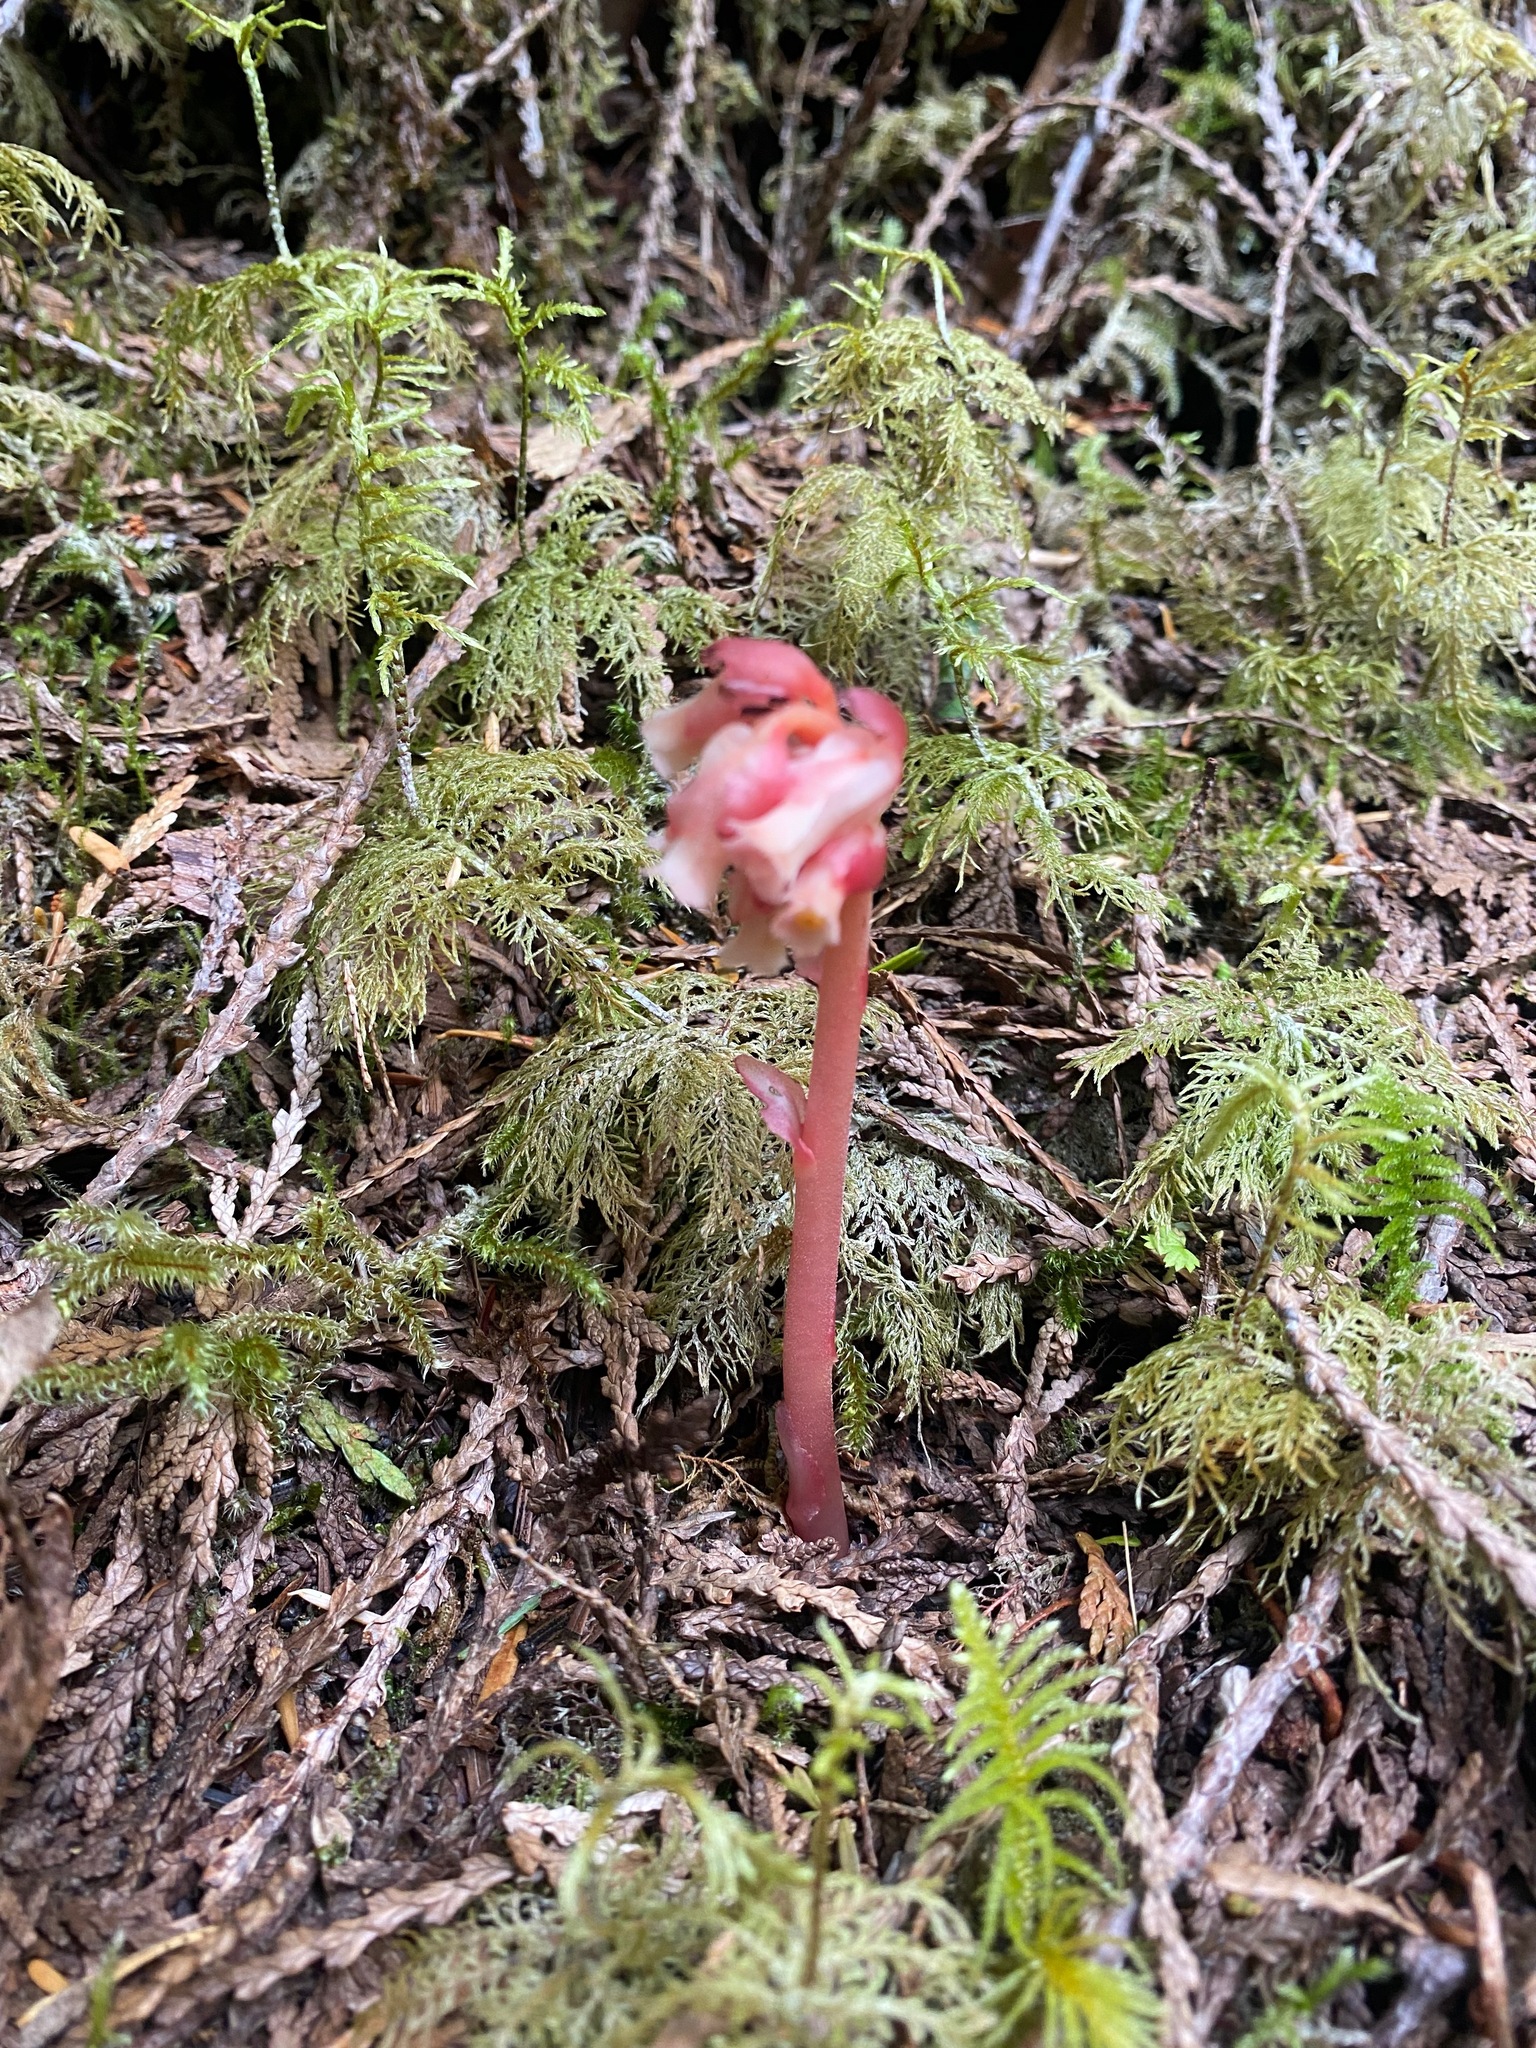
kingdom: Plantae
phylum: Tracheophyta
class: Magnoliopsida
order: Ericales
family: Ericaceae
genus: Hypopitys
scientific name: Hypopitys monotropa
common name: Yellow bird's-nest
